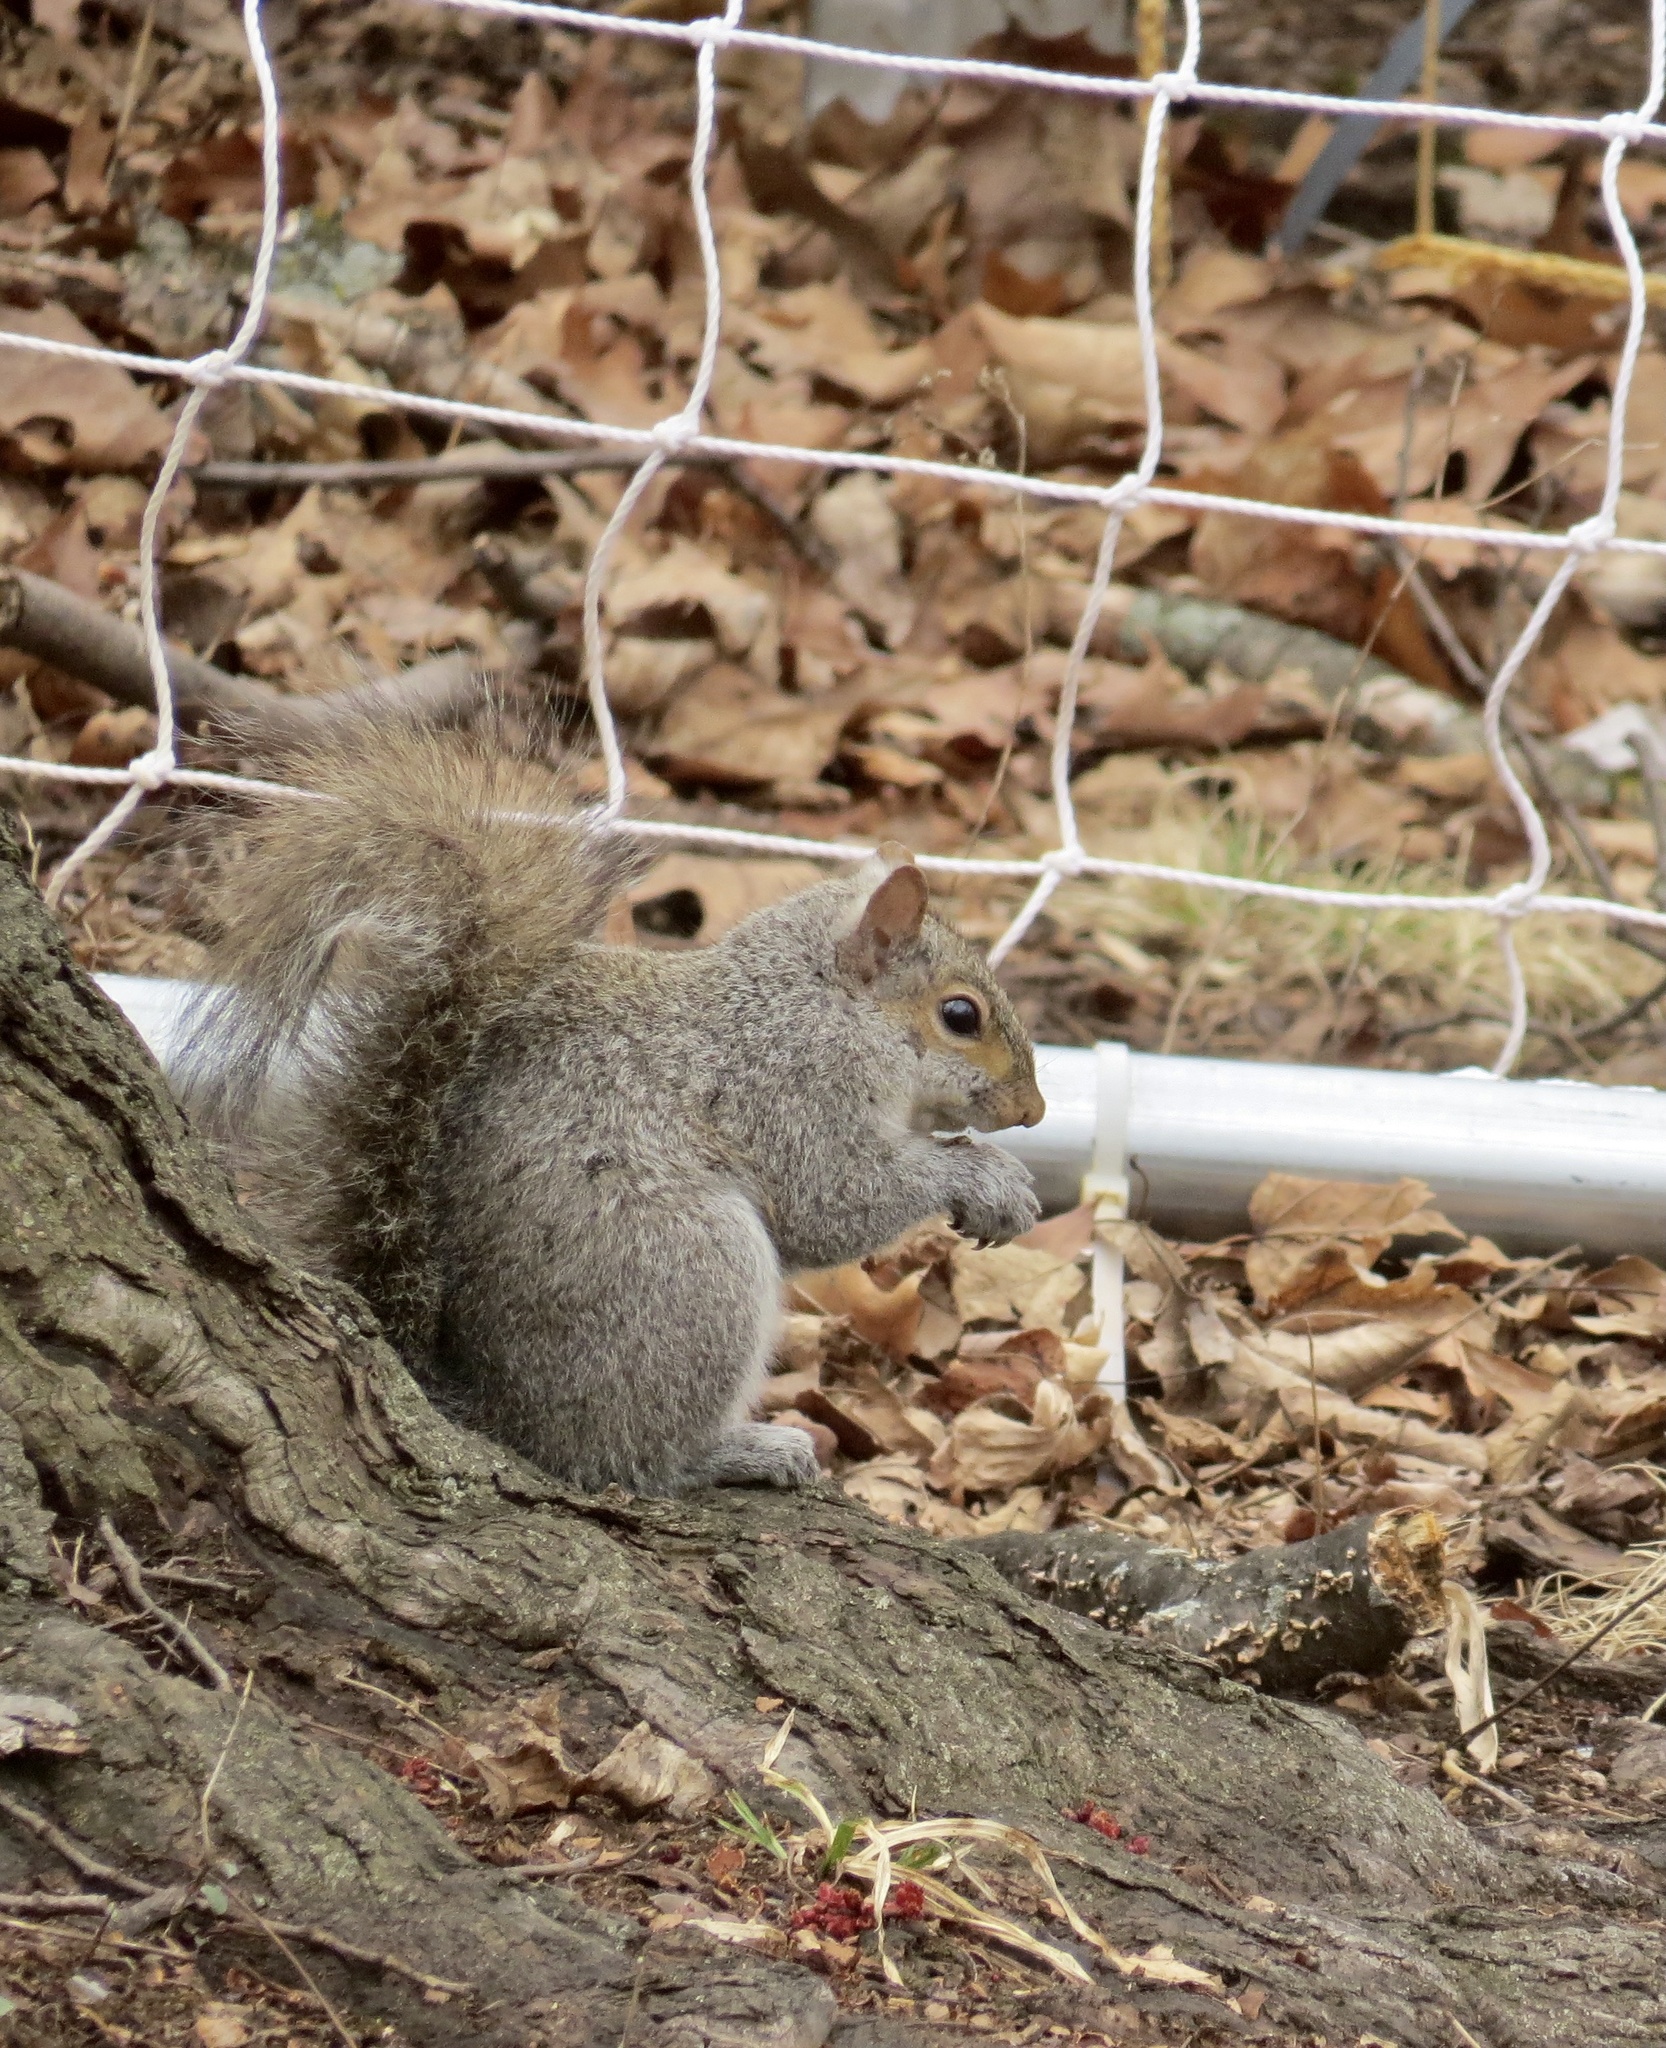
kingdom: Animalia
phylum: Chordata
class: Mammalia
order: Rodentia
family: Sciuridae
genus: Sciurus
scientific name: Sciurus carolinensis
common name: Eastern gray squirrel
